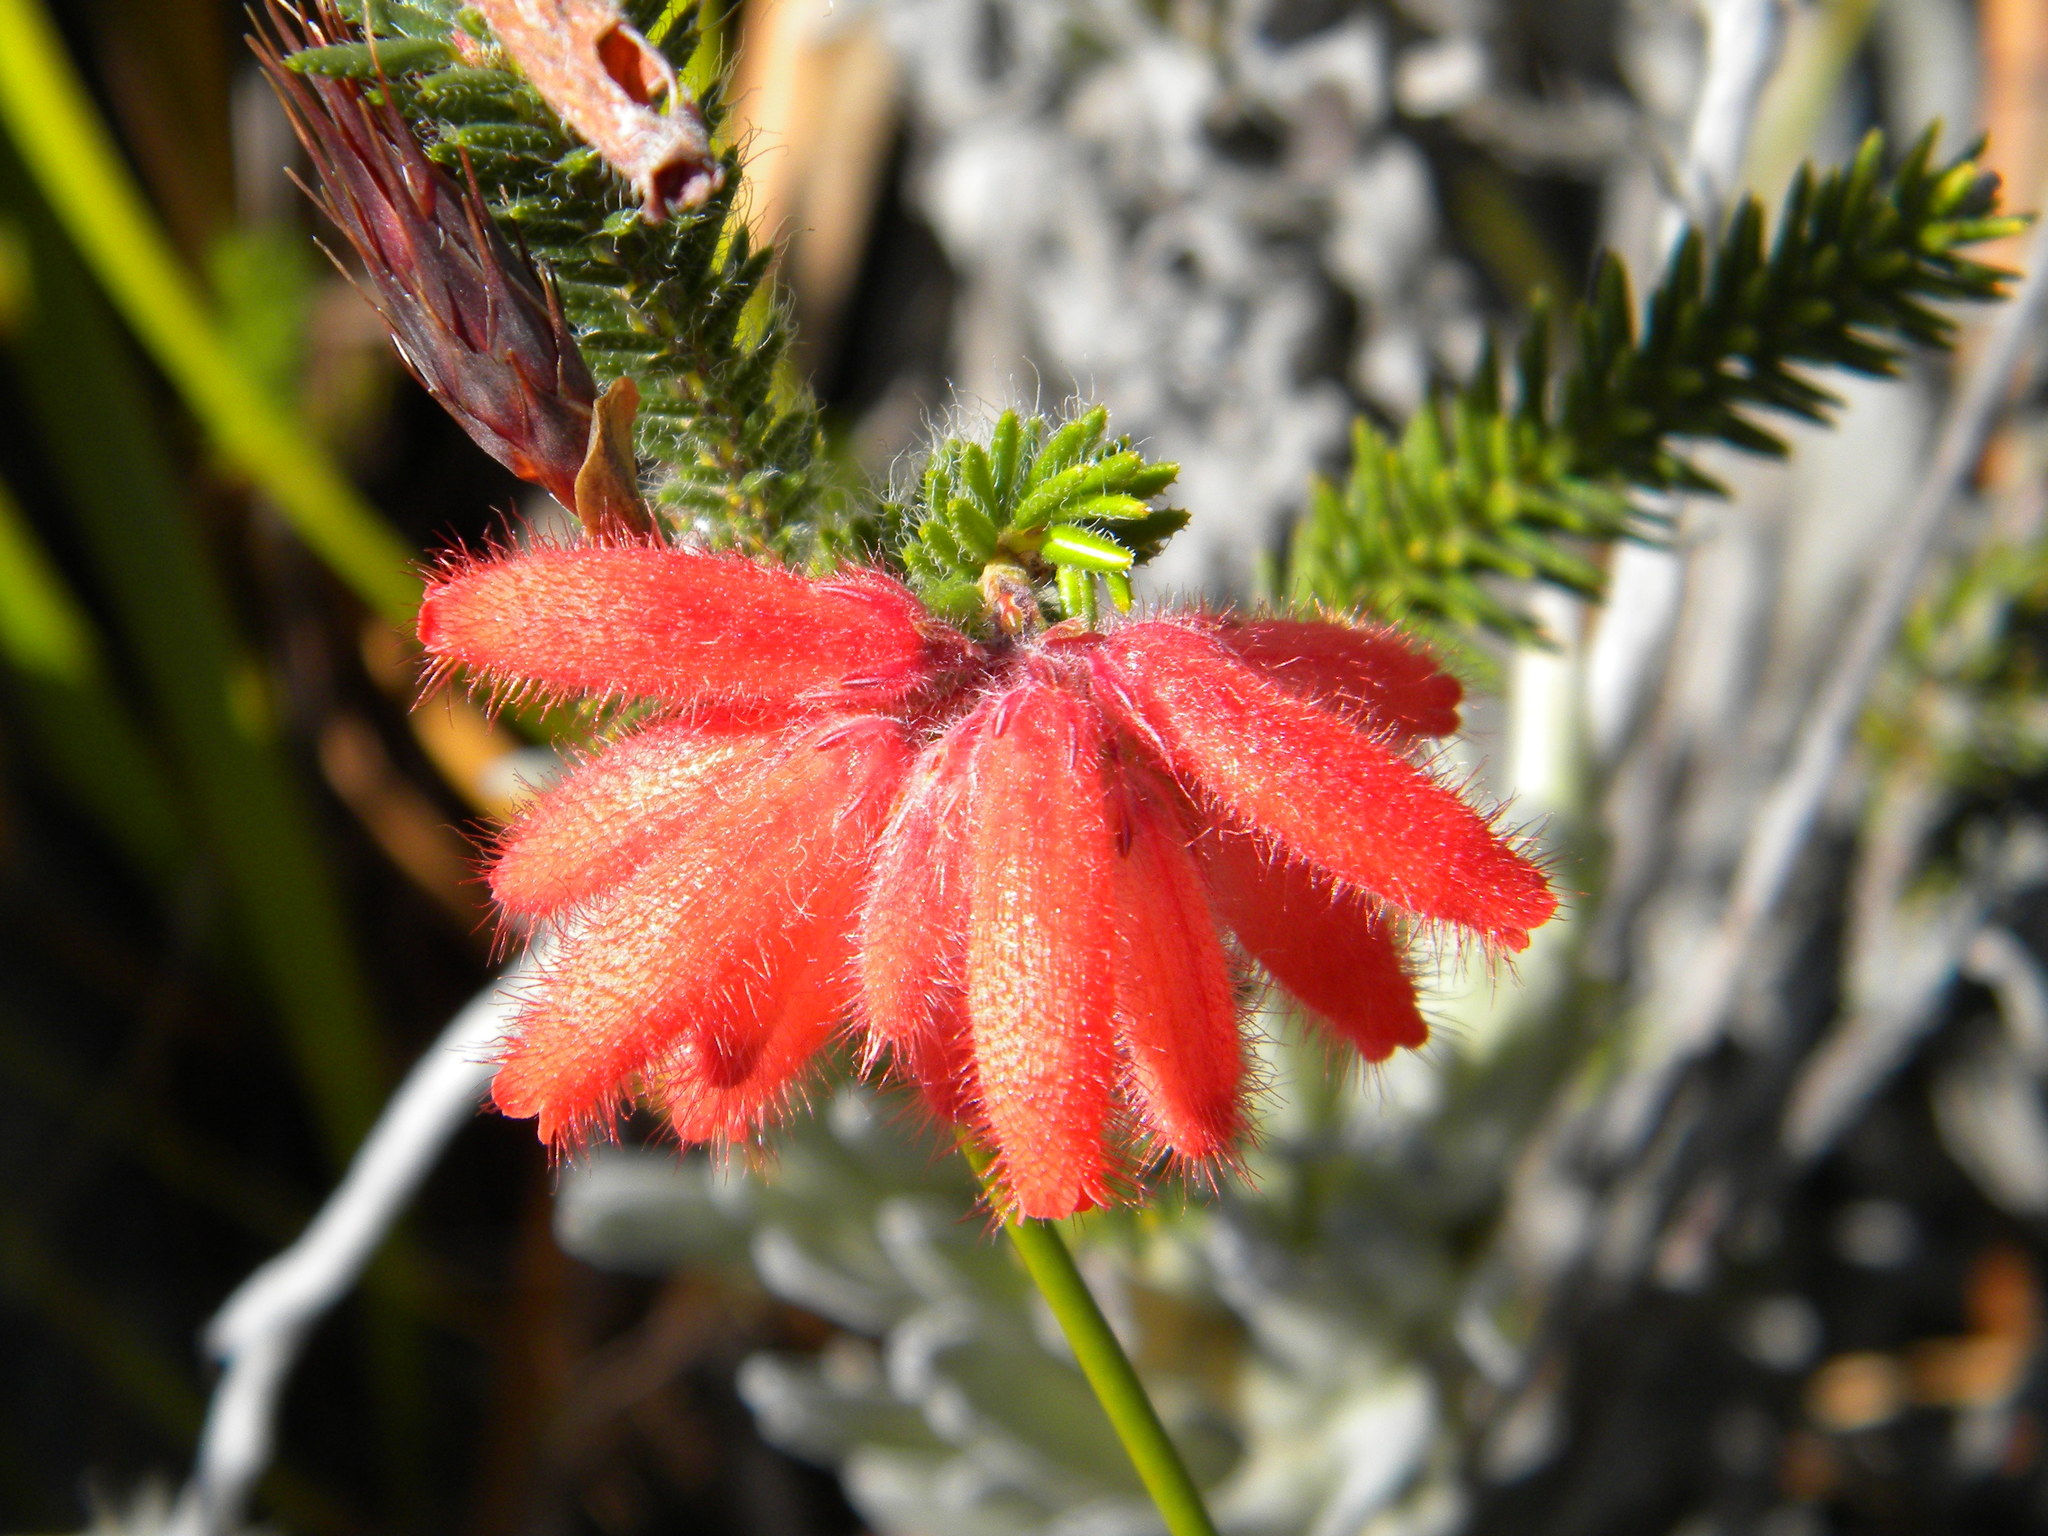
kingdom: Plantae
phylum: Tracheophyta
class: Magnoliopsida
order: Ericales
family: Ericaceae
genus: Erica
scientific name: Erica cerinthoides
